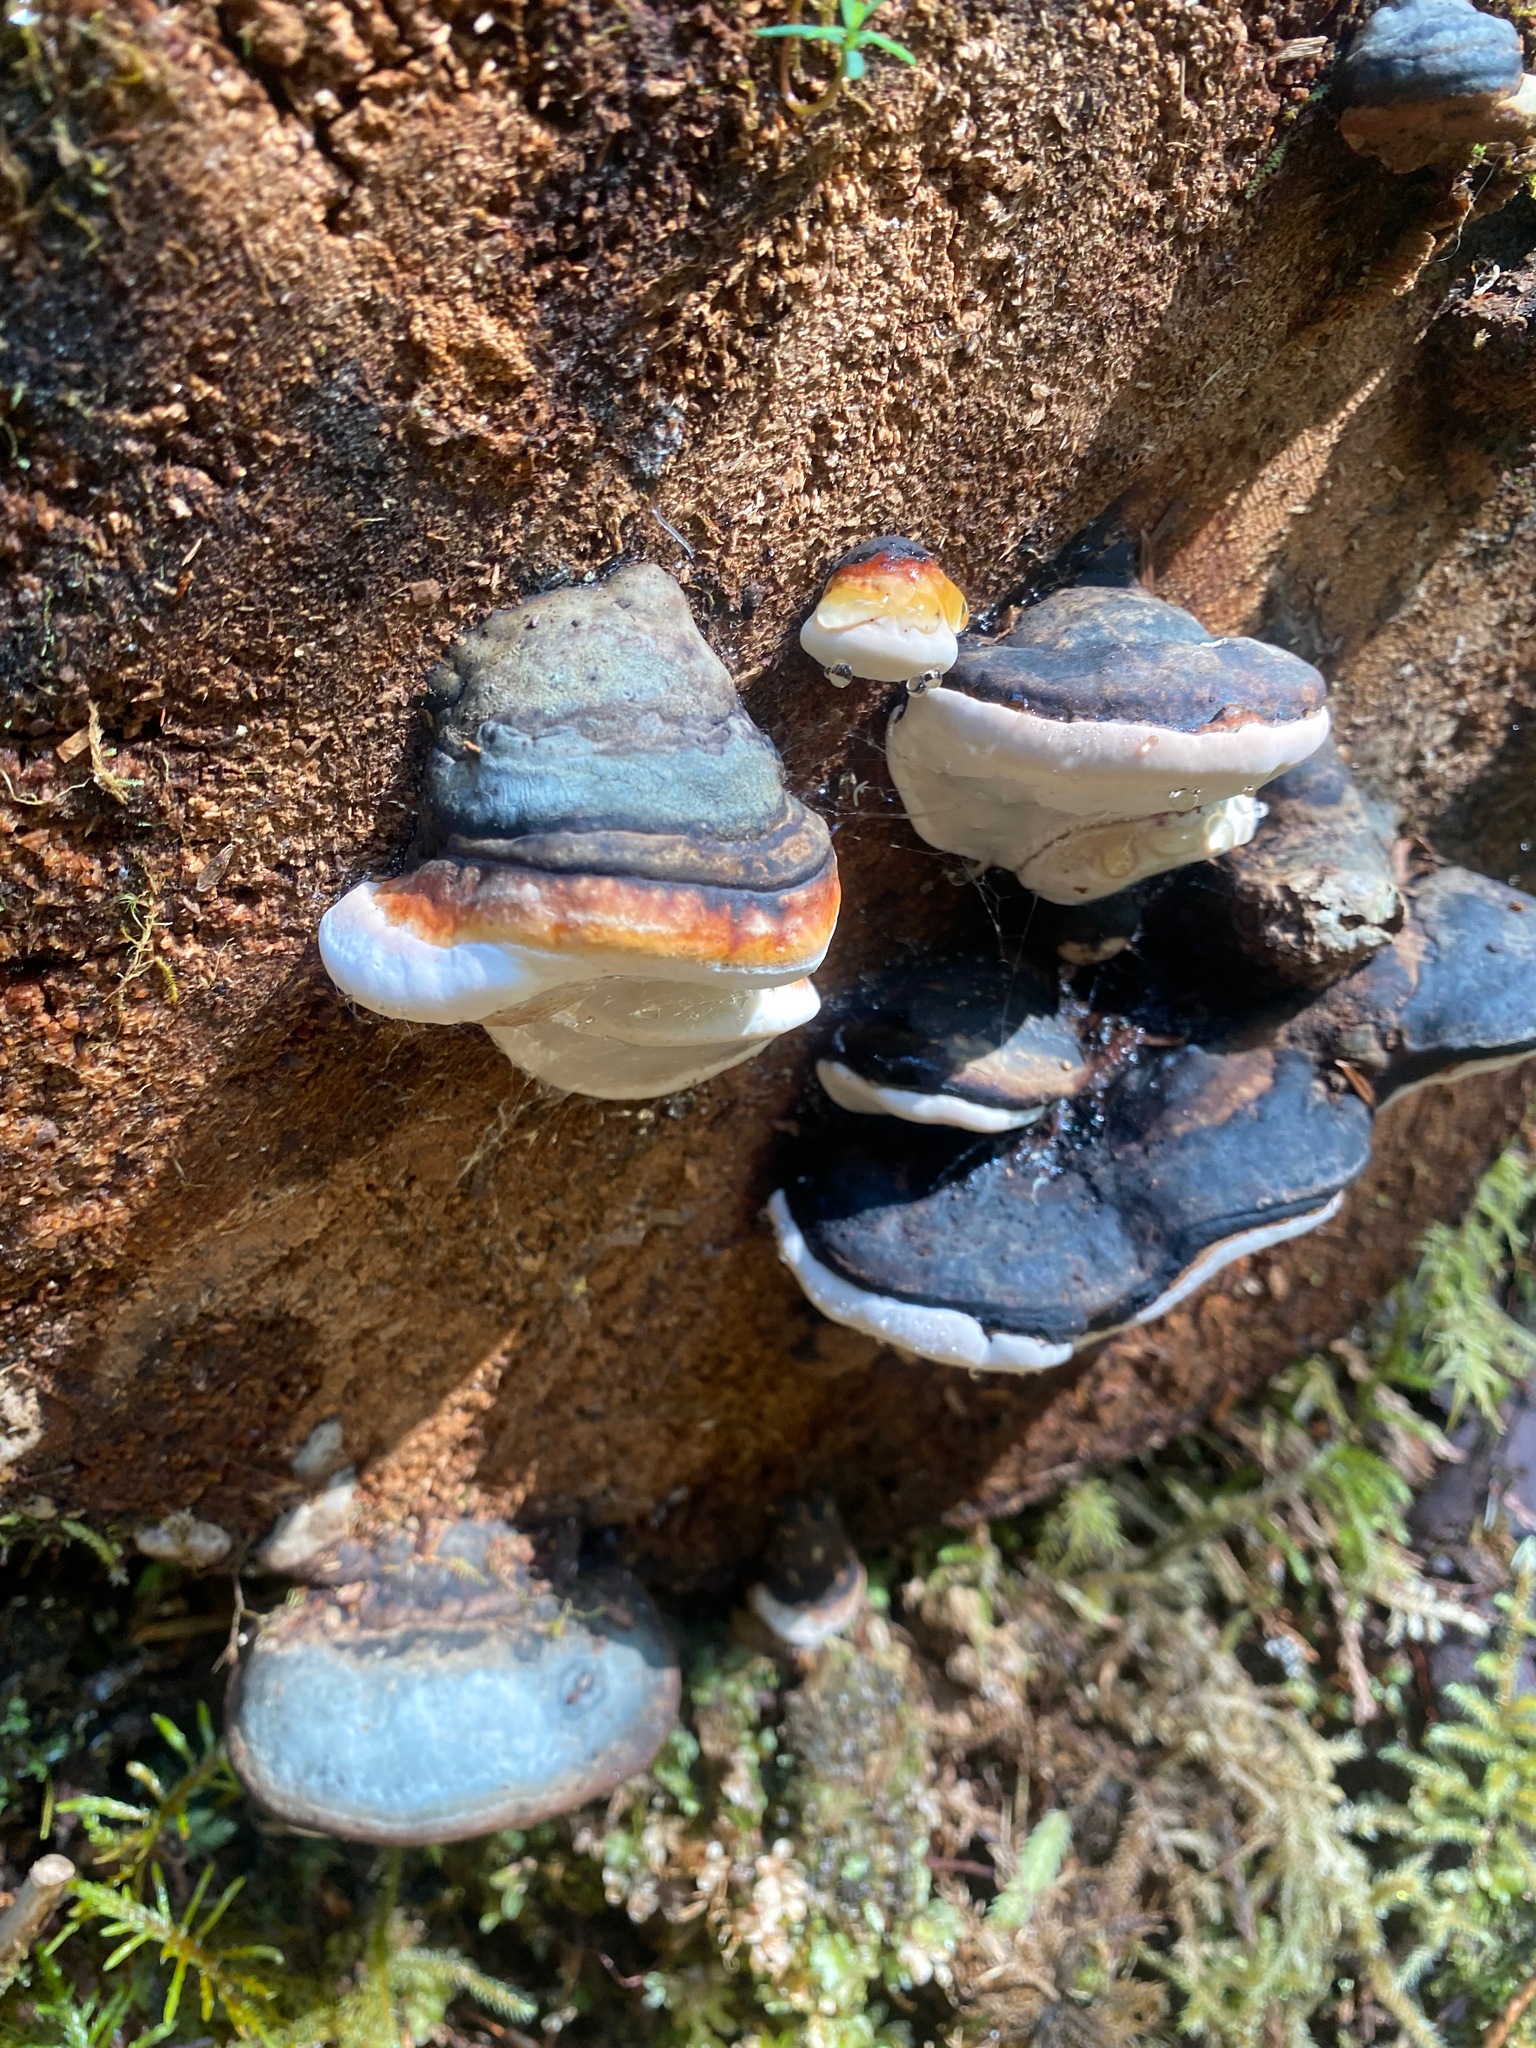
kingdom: Fungi
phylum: Basidiomycota
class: Agaricomycetes
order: Polyporales
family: Fomitopsidaceae
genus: Fomitopsis
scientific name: Fomitopsis mounceae
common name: Northern red belt
